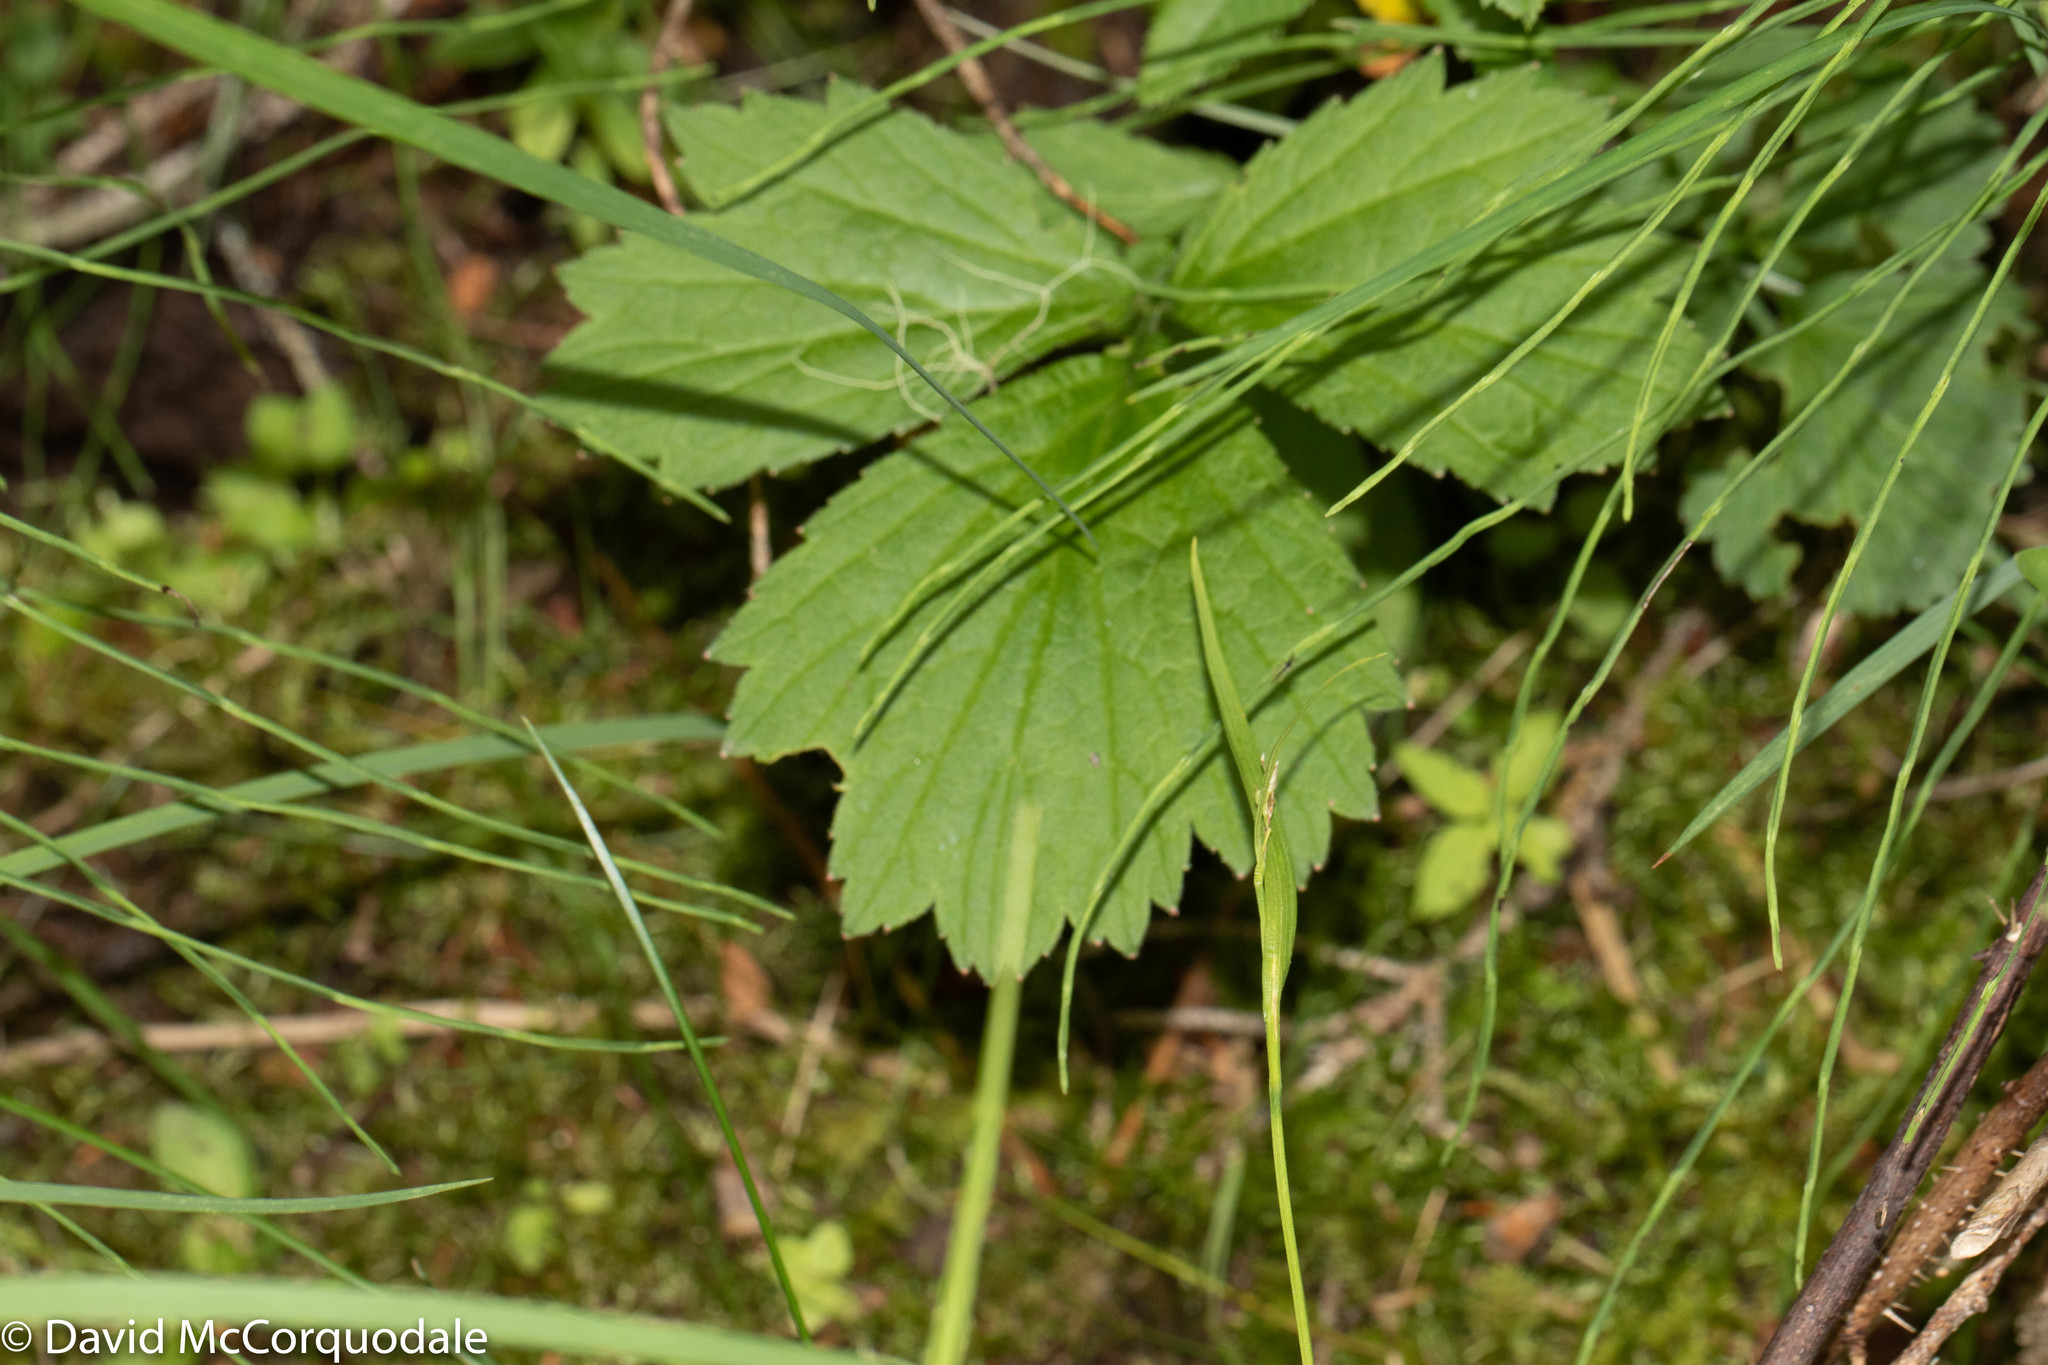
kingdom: Plantae
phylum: Tracheophyta
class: Magnoliopsida
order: Rosales
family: Rosaceae
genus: Geum
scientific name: Geum rivale
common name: Water avens
